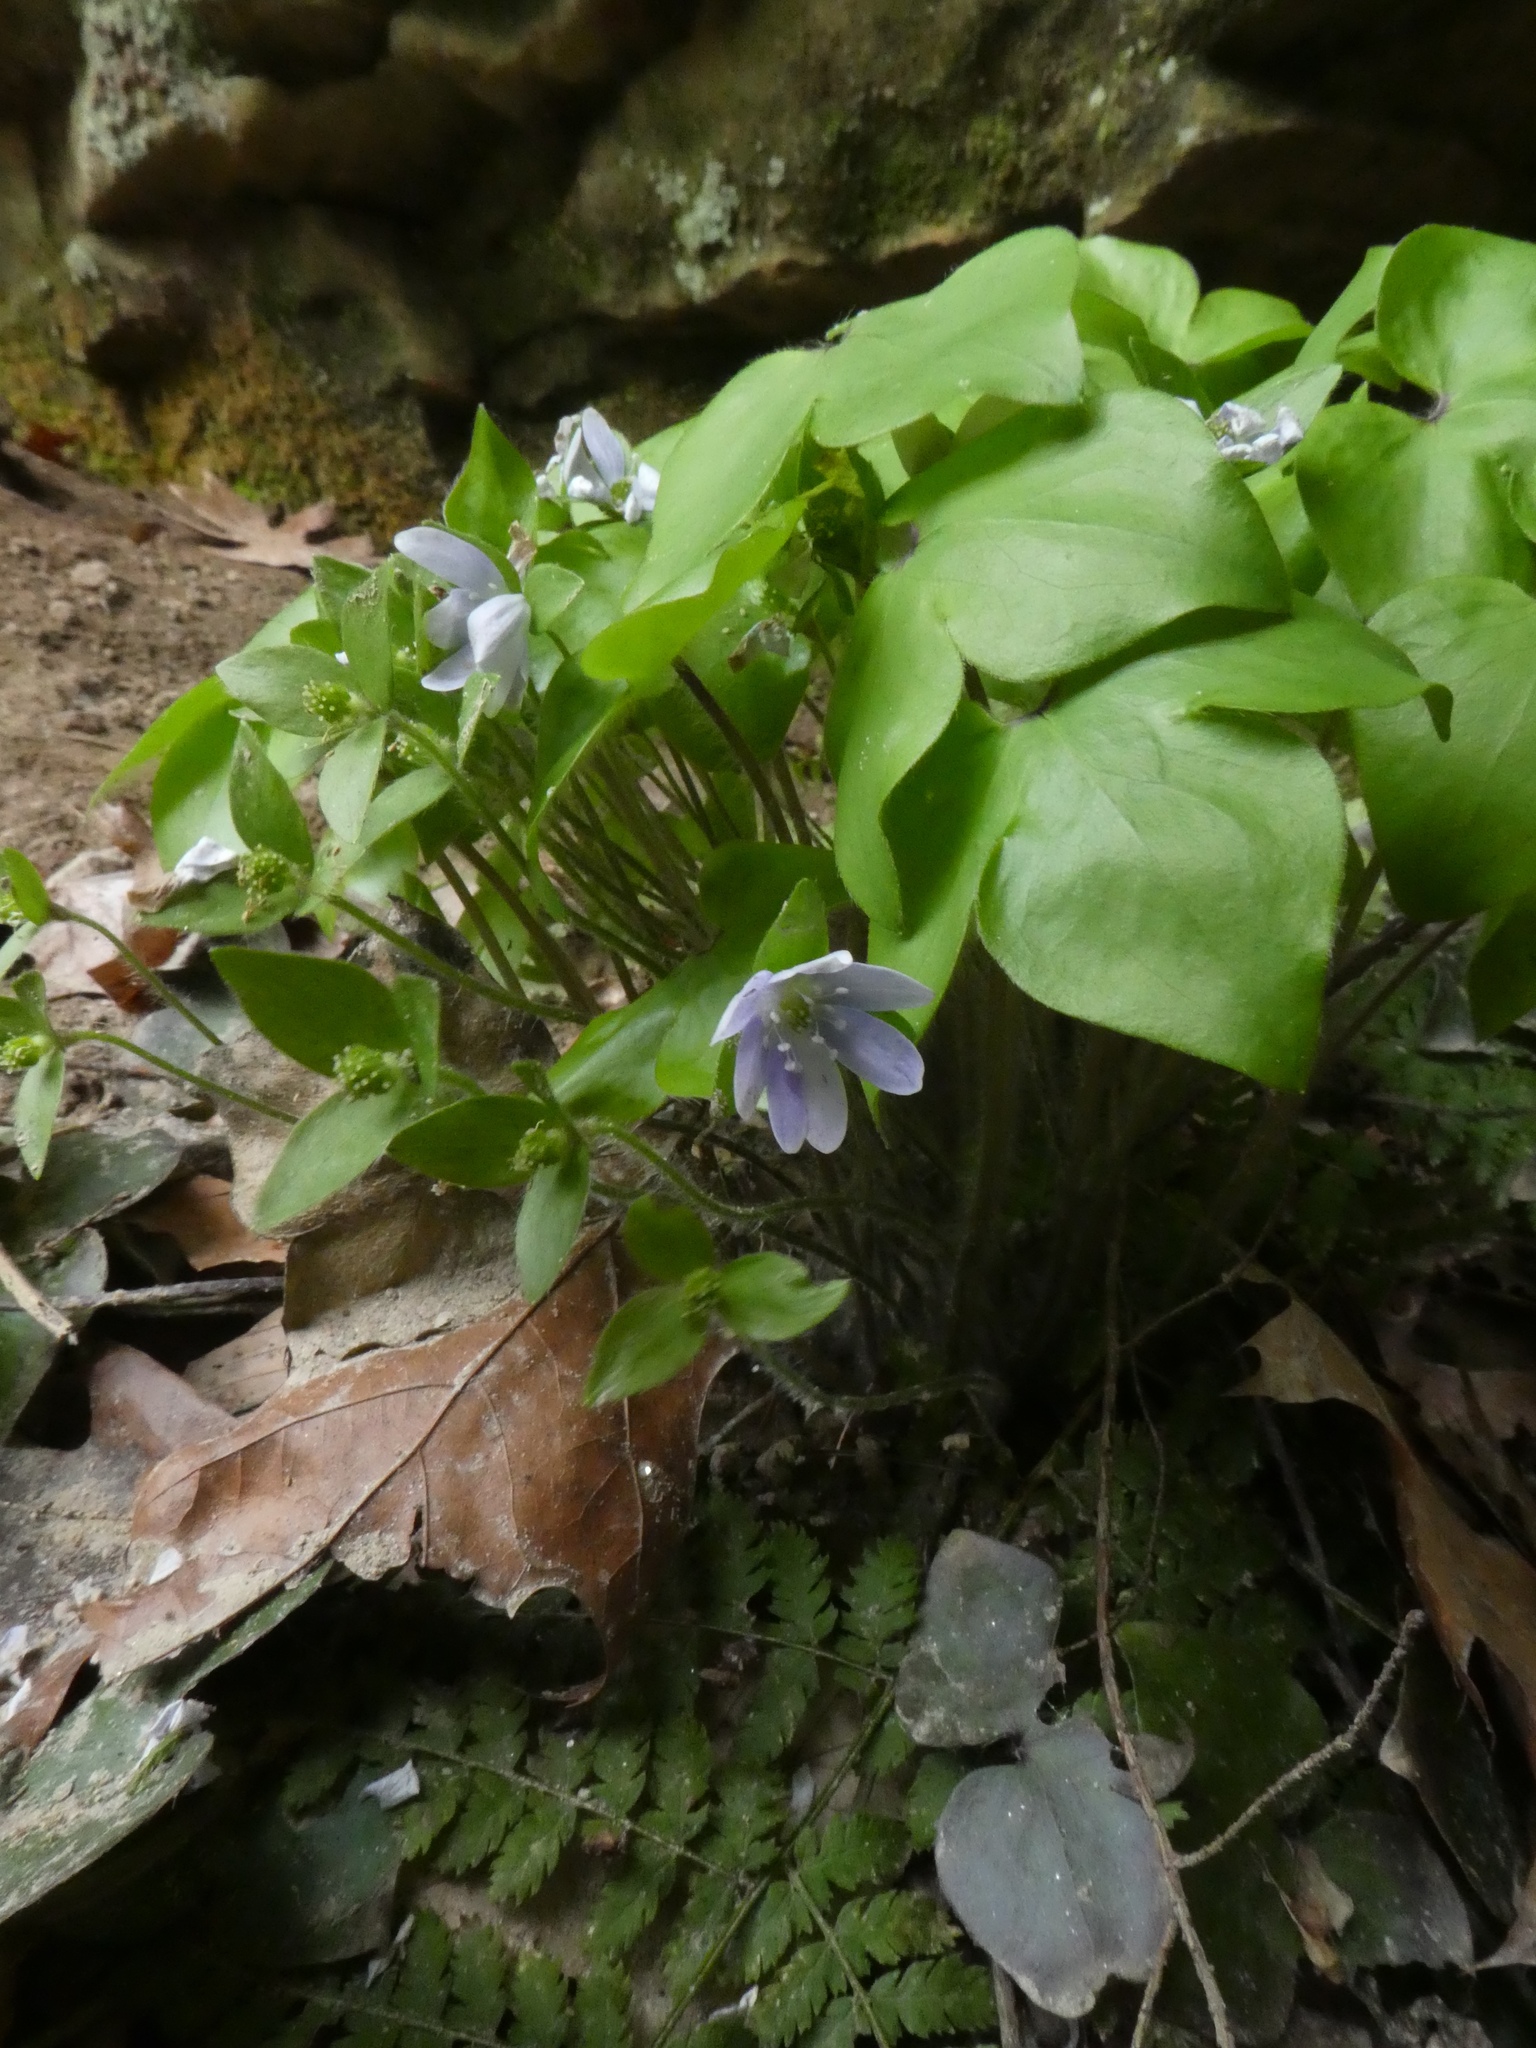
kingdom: Plantae
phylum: Tracheophyta
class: Magnoliopsida
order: Ranunculales
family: Ranunculaceae
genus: Hepatica
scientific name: Hepatica acutiloba
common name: Sharp-lobed hepatica
